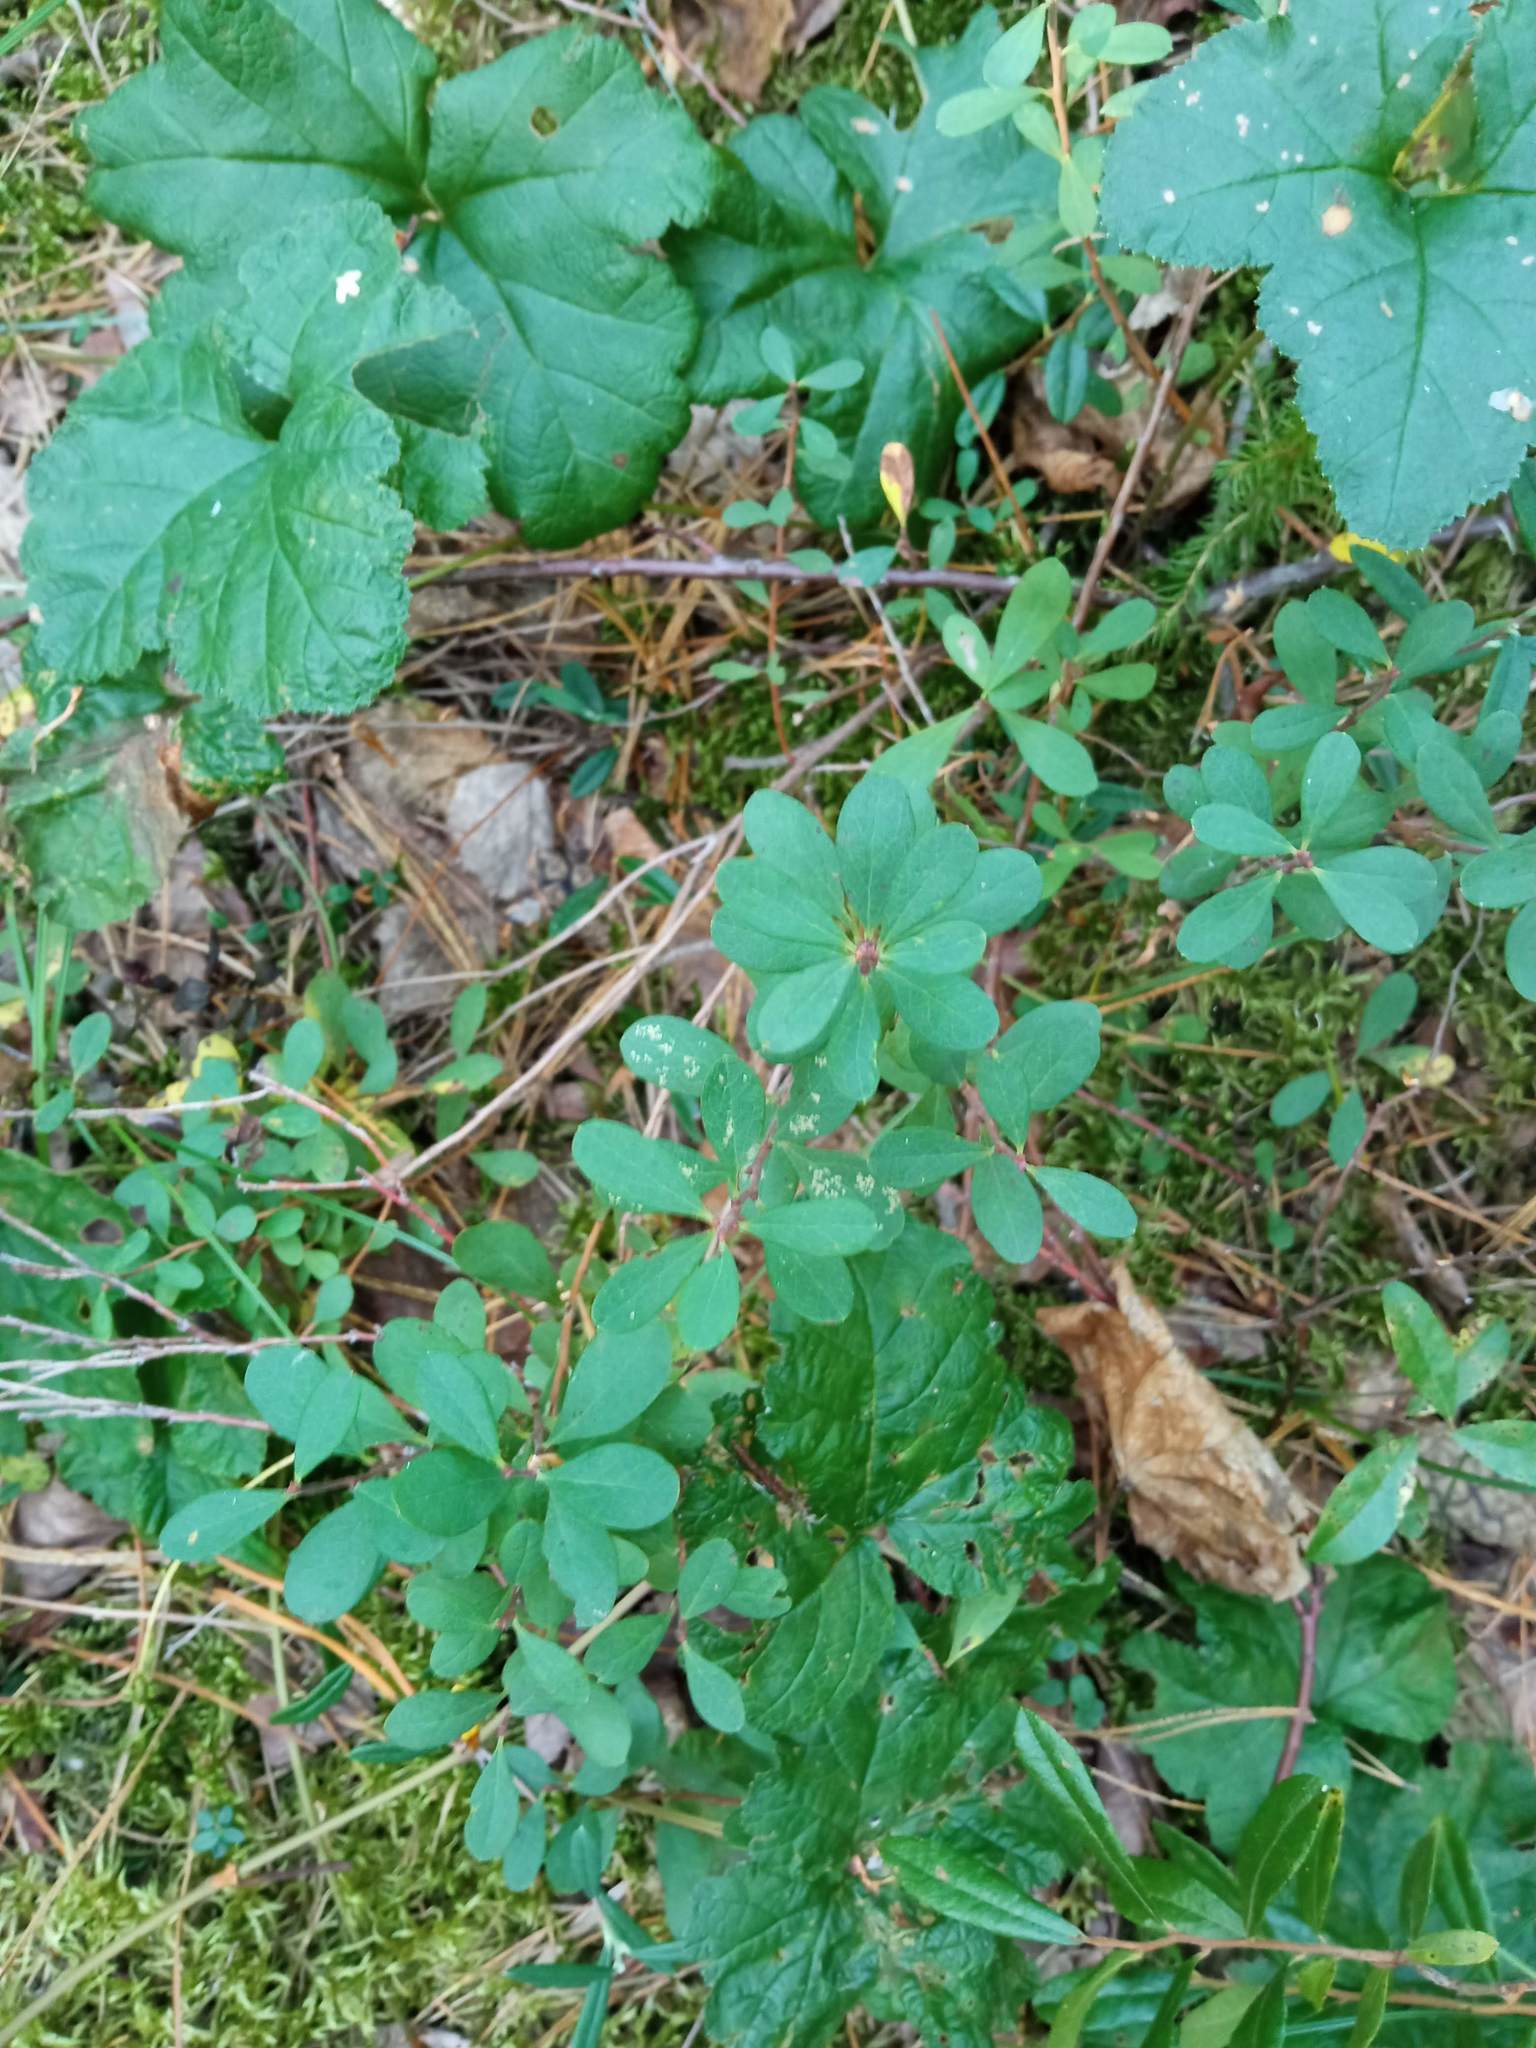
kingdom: Plantae
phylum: Tracheophyta
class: Magnoliopsida
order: Ericales
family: Ericaceae
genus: Vaccinium
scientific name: Vaccinium uliginosum
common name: Bog bilberry
